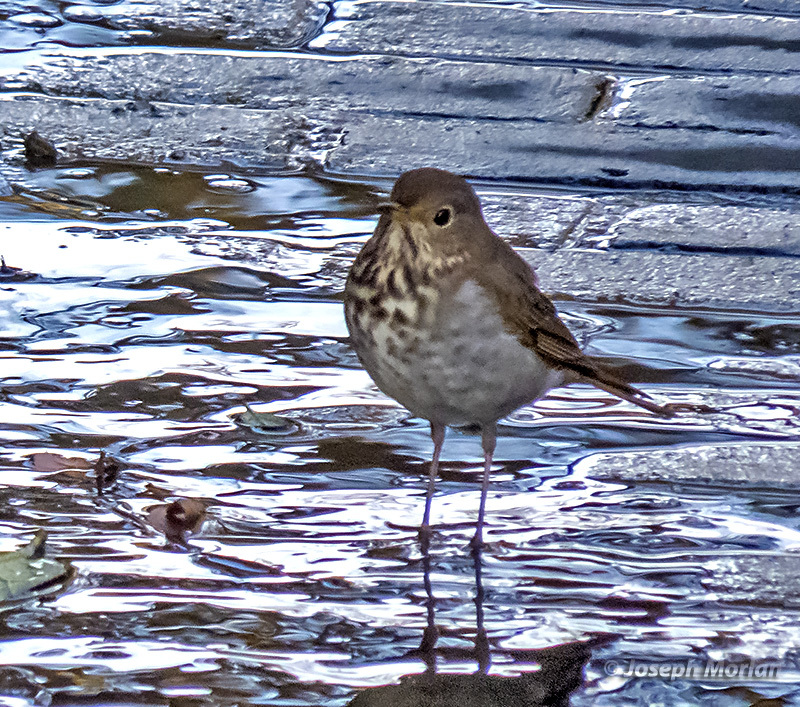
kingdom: Animalia
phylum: Chordata
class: Aves
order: Passeriformes
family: Turdidae
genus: Catharus
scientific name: Catharus guttatus
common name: Hermit thrush
